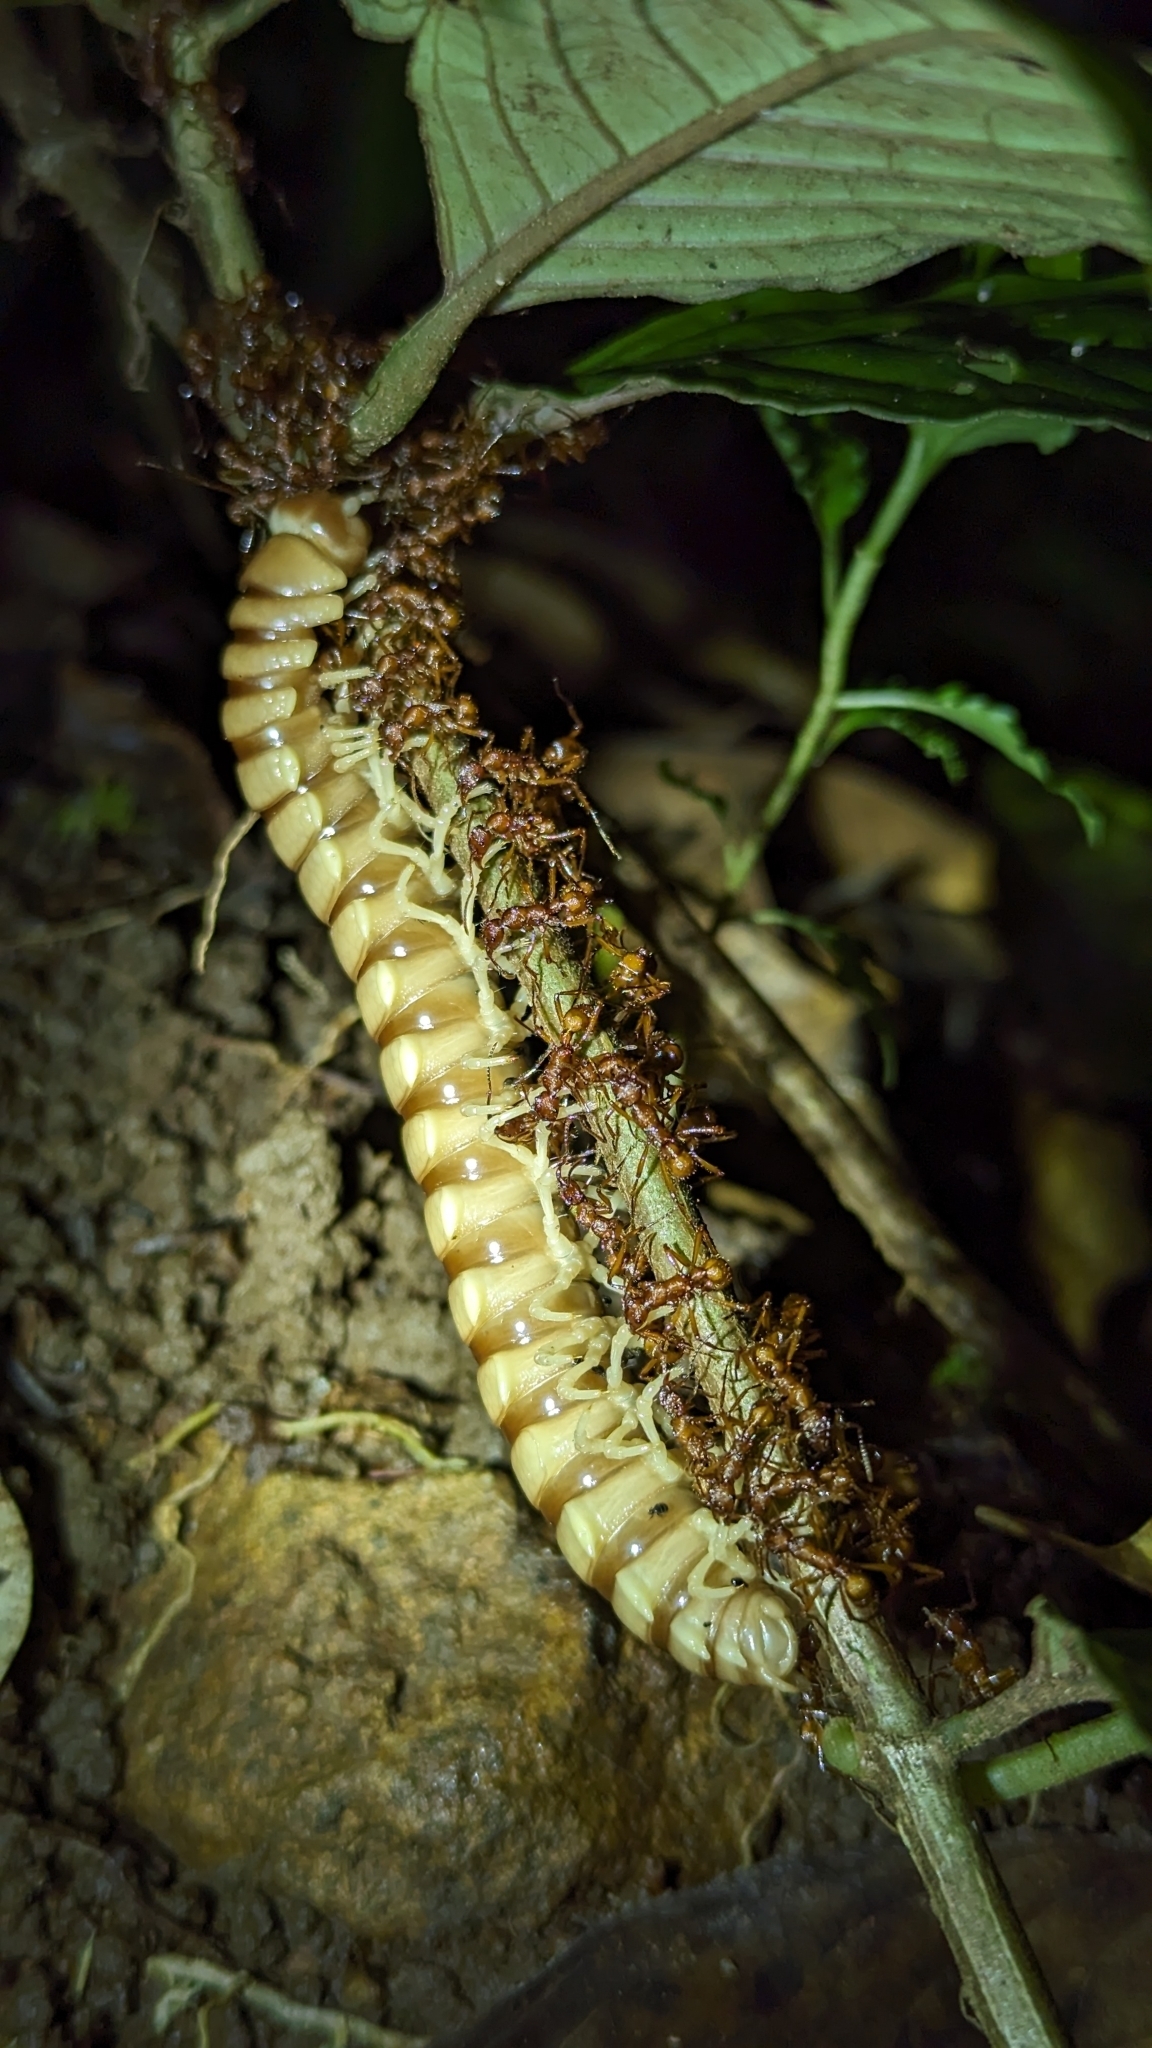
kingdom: Animalia
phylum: Arthropoda
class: Insecta
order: Hymenoptera
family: Formicidae
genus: Poneracantha
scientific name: Poneracantha
